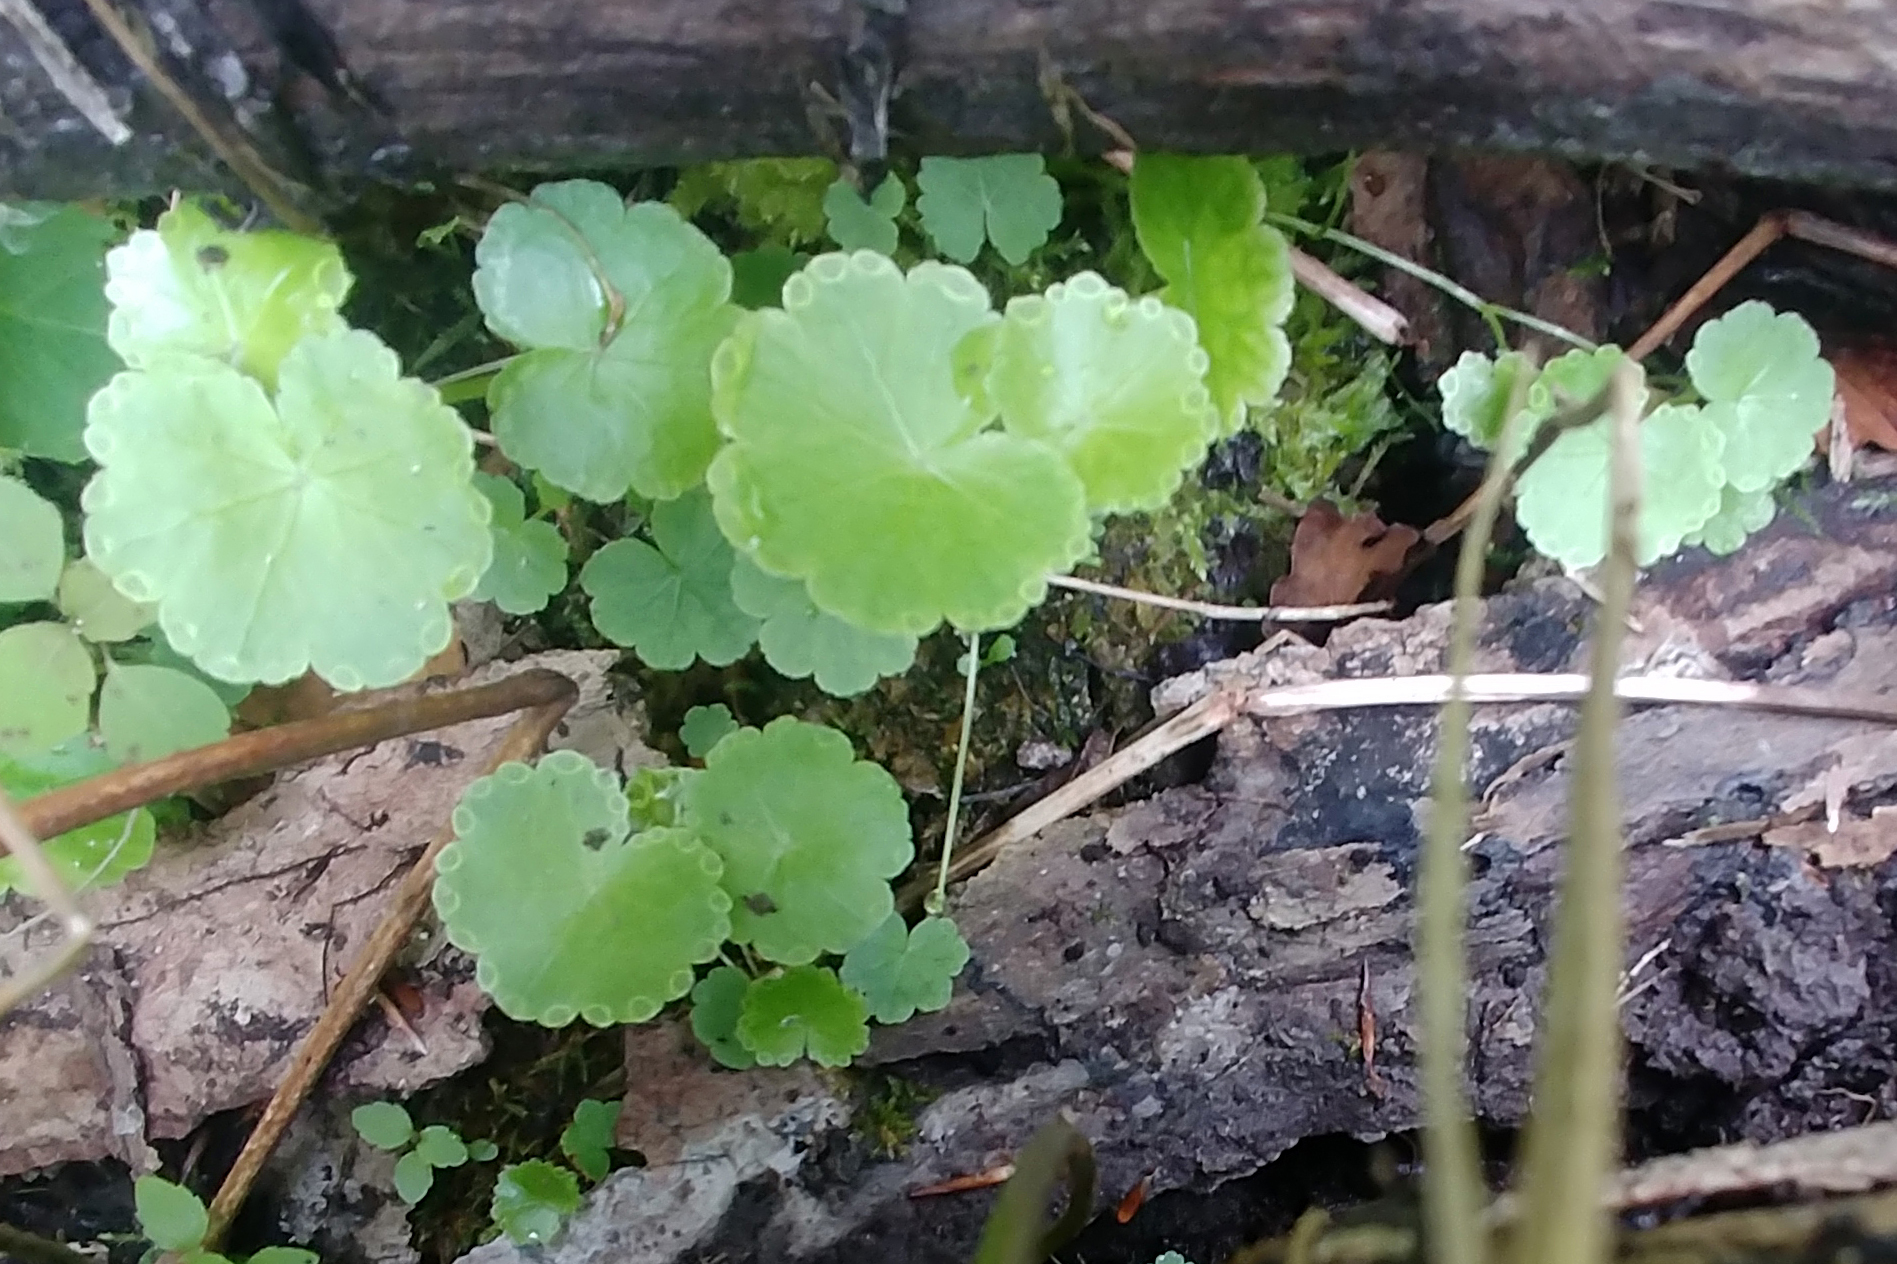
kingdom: Plantae
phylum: Tracheophyta
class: Magnoliopsida
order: Apiales
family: Araliaceae
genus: Hydrocotyle
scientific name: Hydrocotyle americana
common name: American water-pennywort
